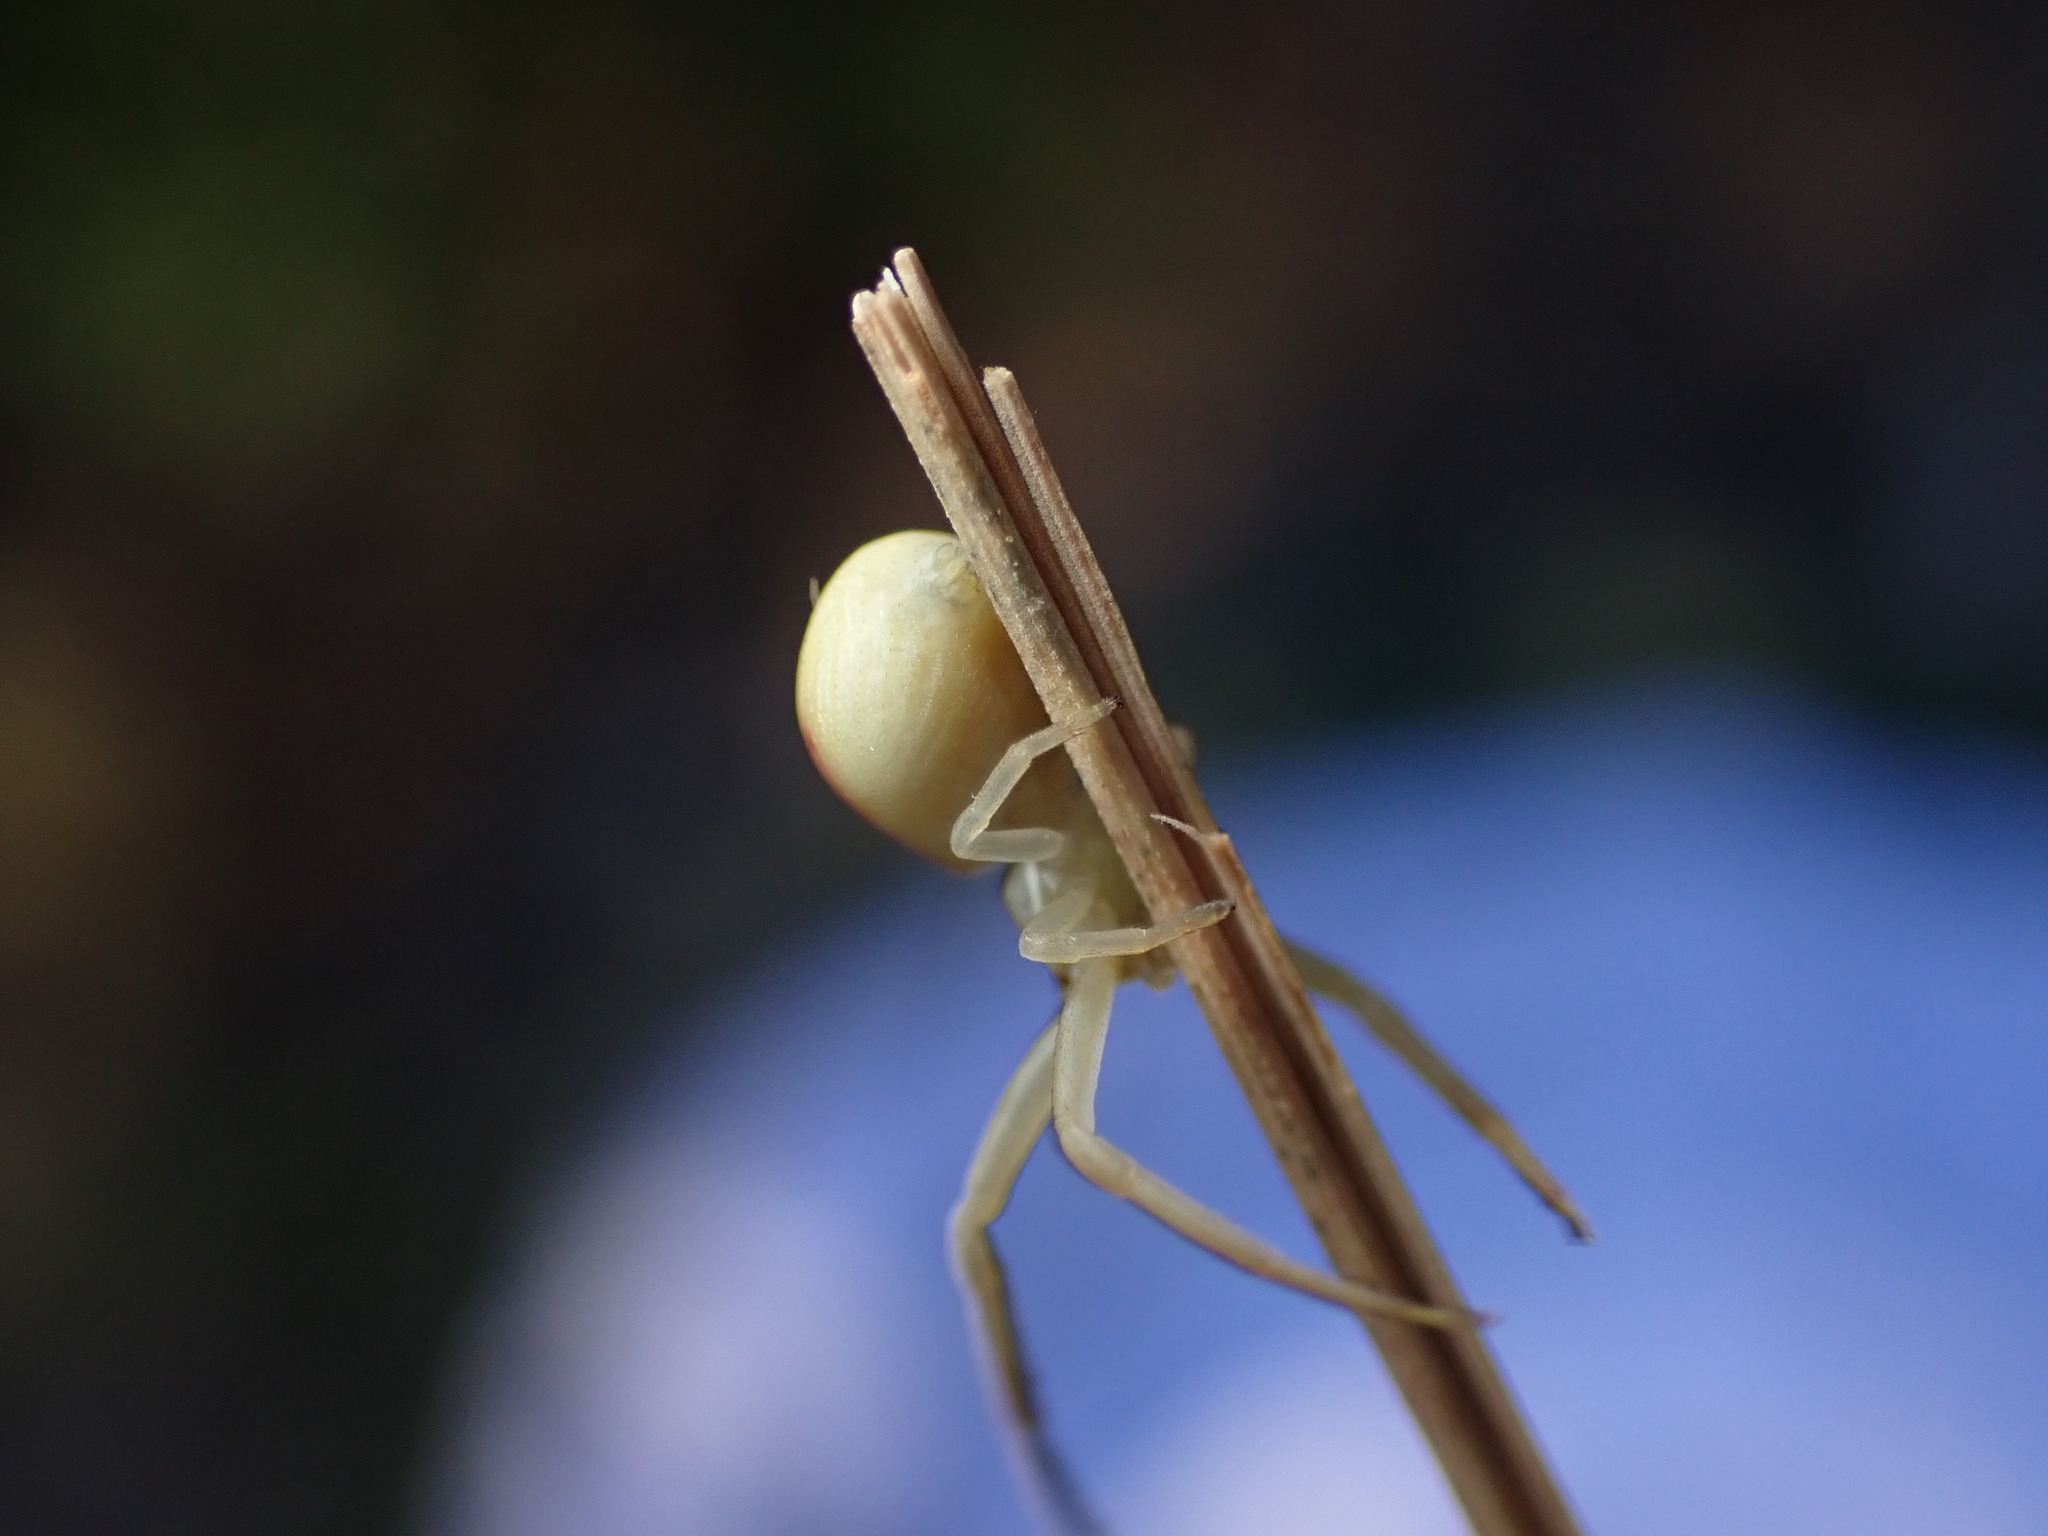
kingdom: Animalia
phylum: Arthropoda
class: Arachnida
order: Araneae
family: Thomisidae
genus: Runcinia
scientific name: Runcinia grammica
